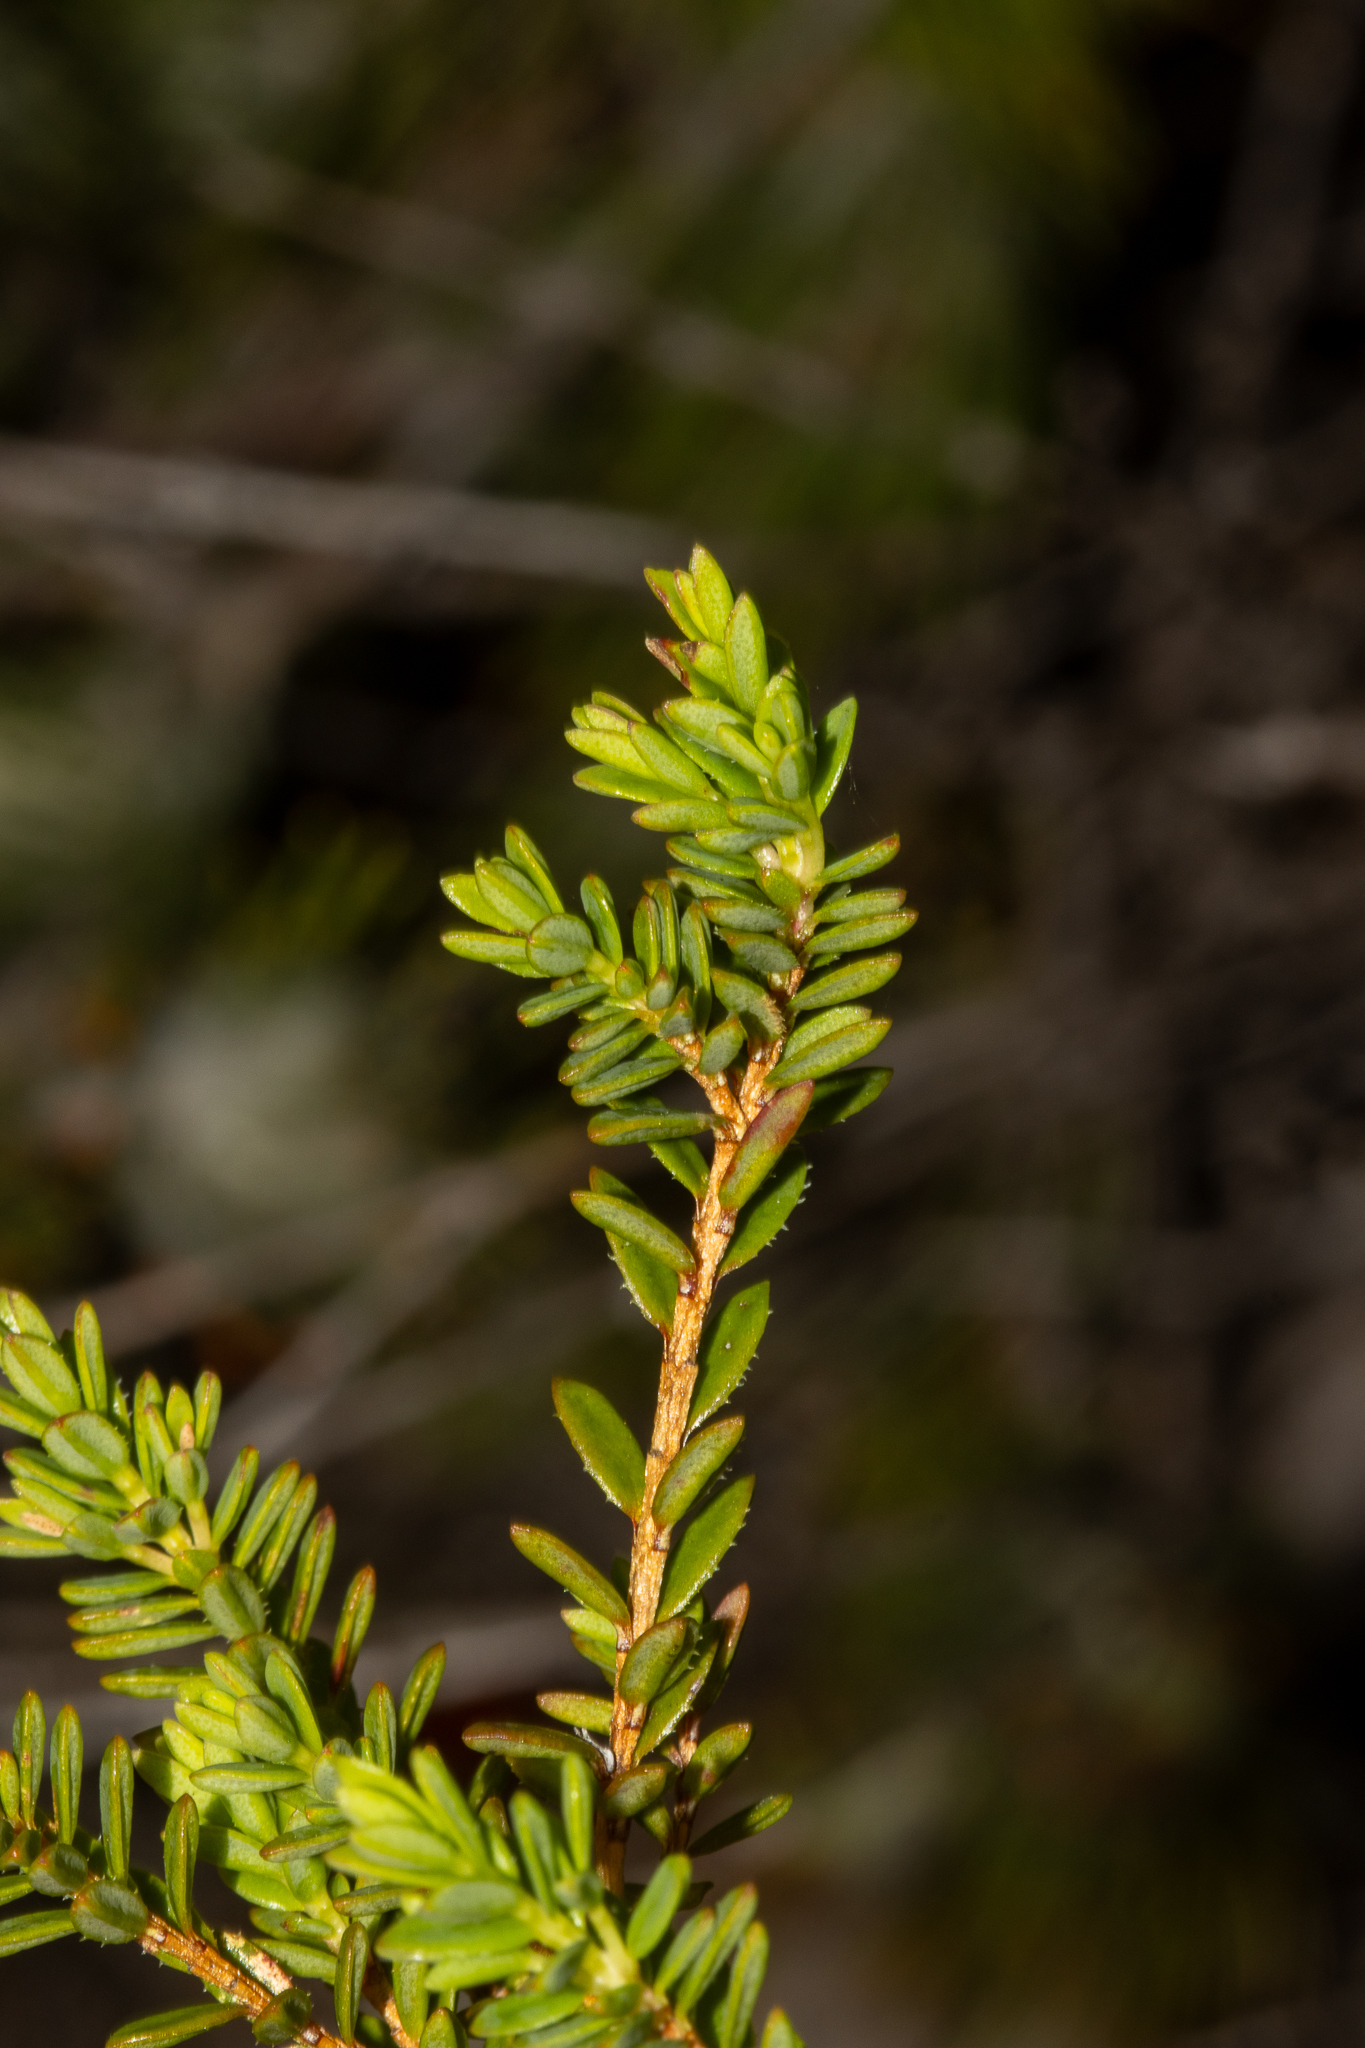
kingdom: Plantae
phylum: Tracheophyta
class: Magnoliopsida
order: Myrtales
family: Myrtaceae
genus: Darwinia
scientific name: Darwinia sanguinea
